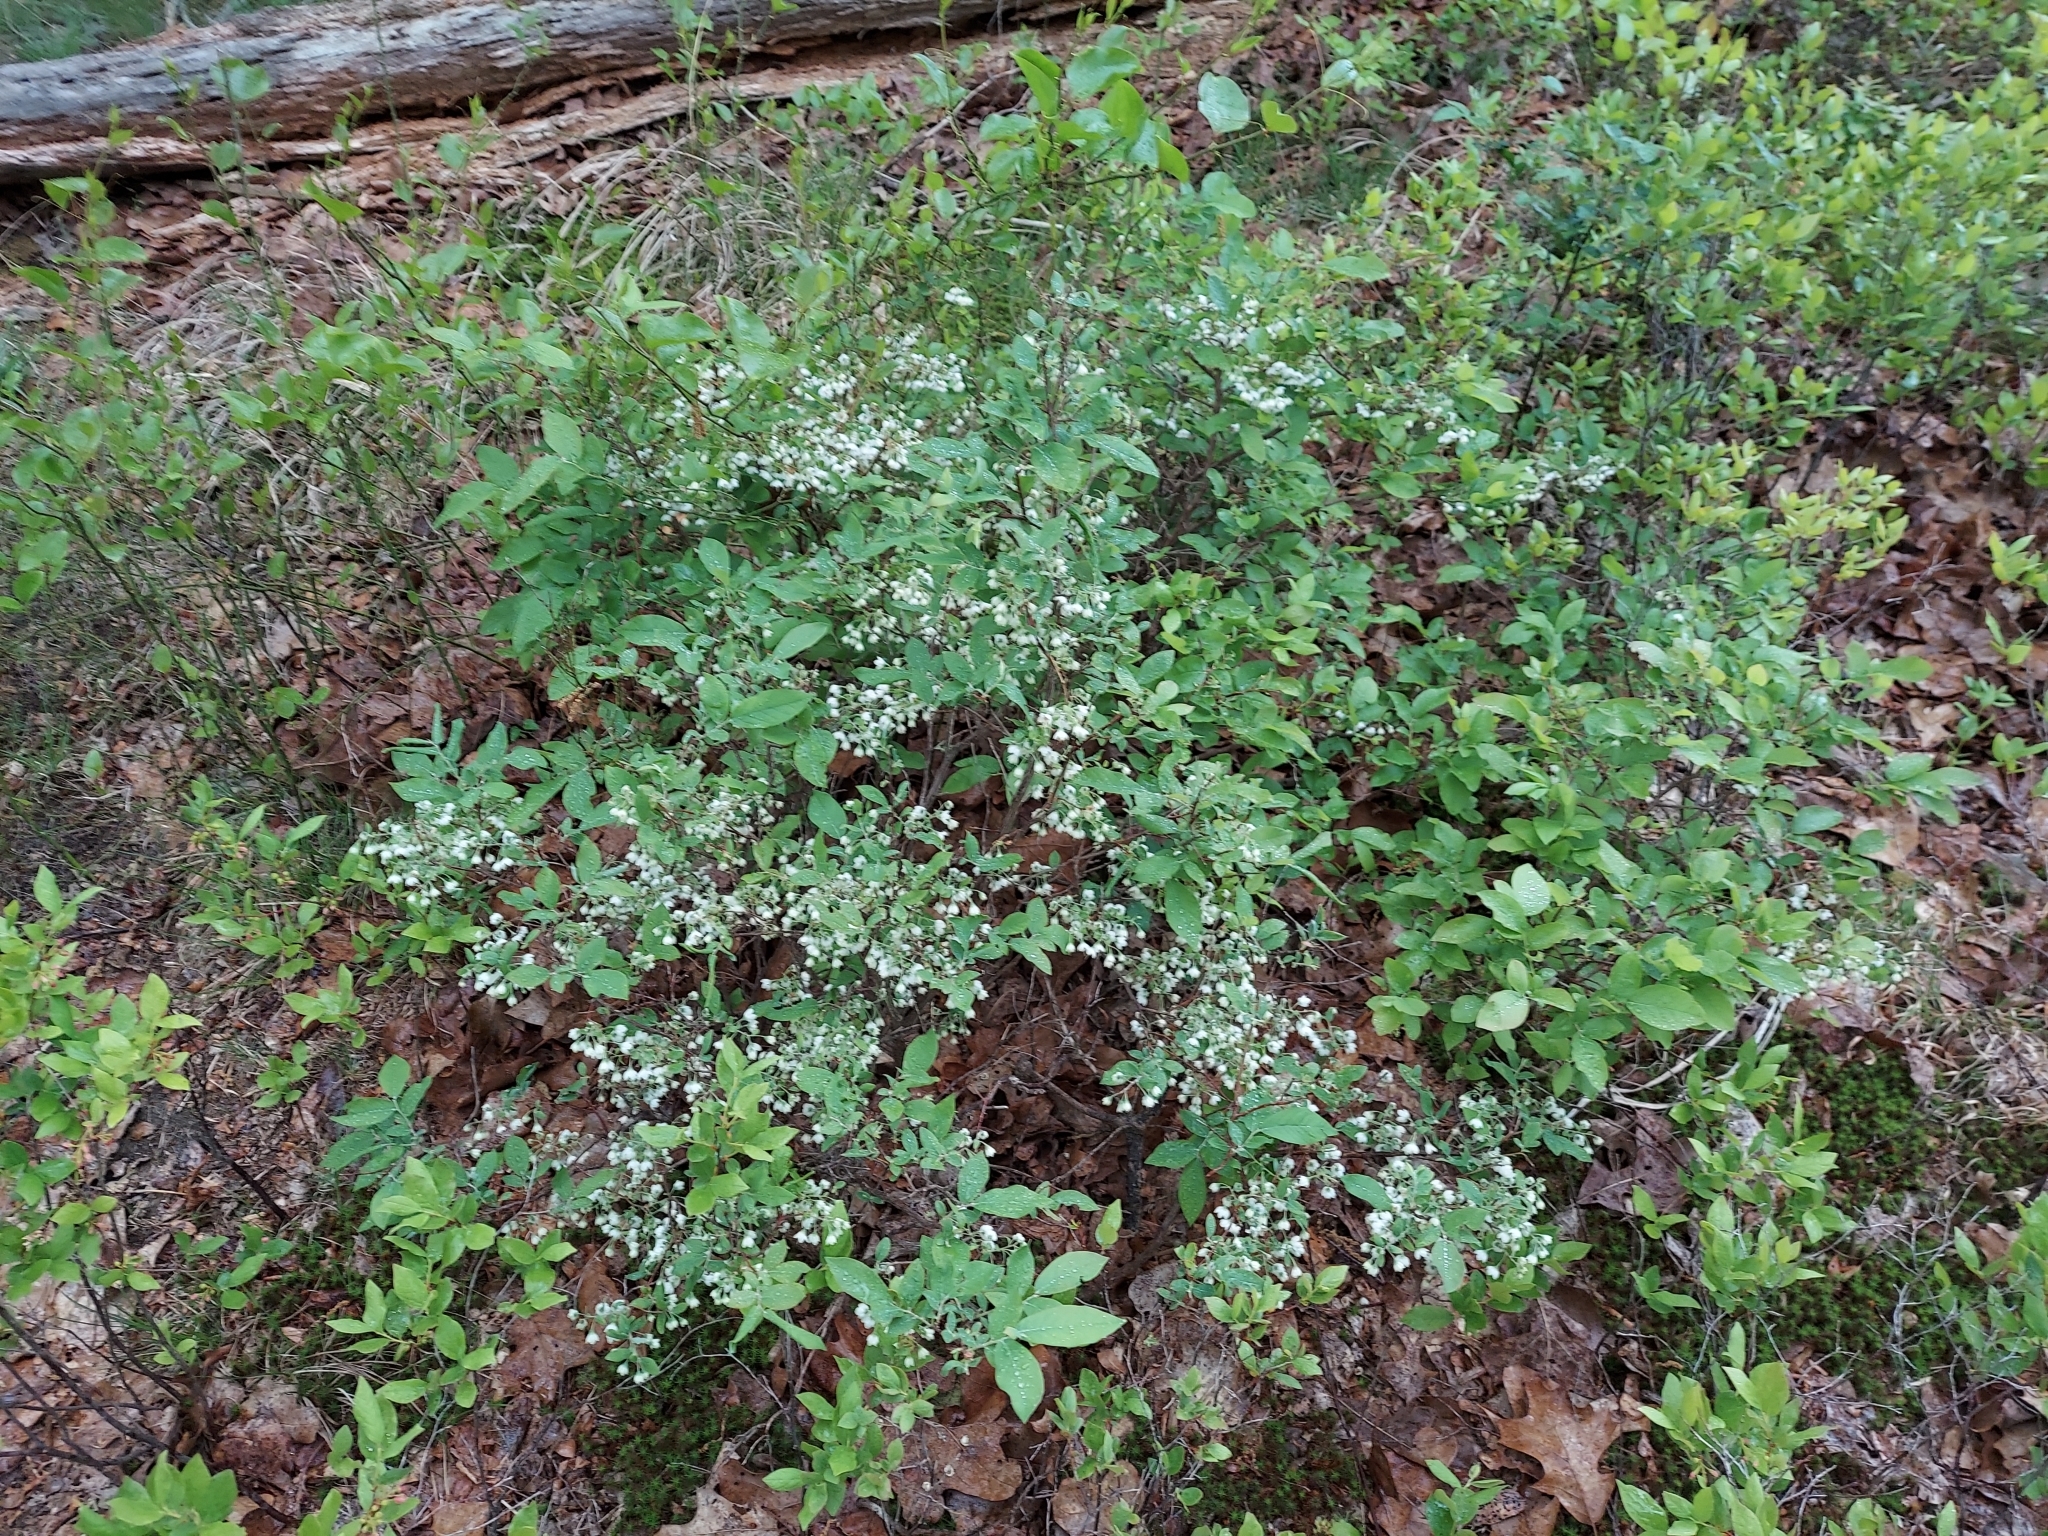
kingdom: Plantae
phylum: Tracheophyta
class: Magnoliopsida
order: Ericales
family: Ericaceae
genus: Vaccinium
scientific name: Vaccinium stamineum
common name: Deerberry
